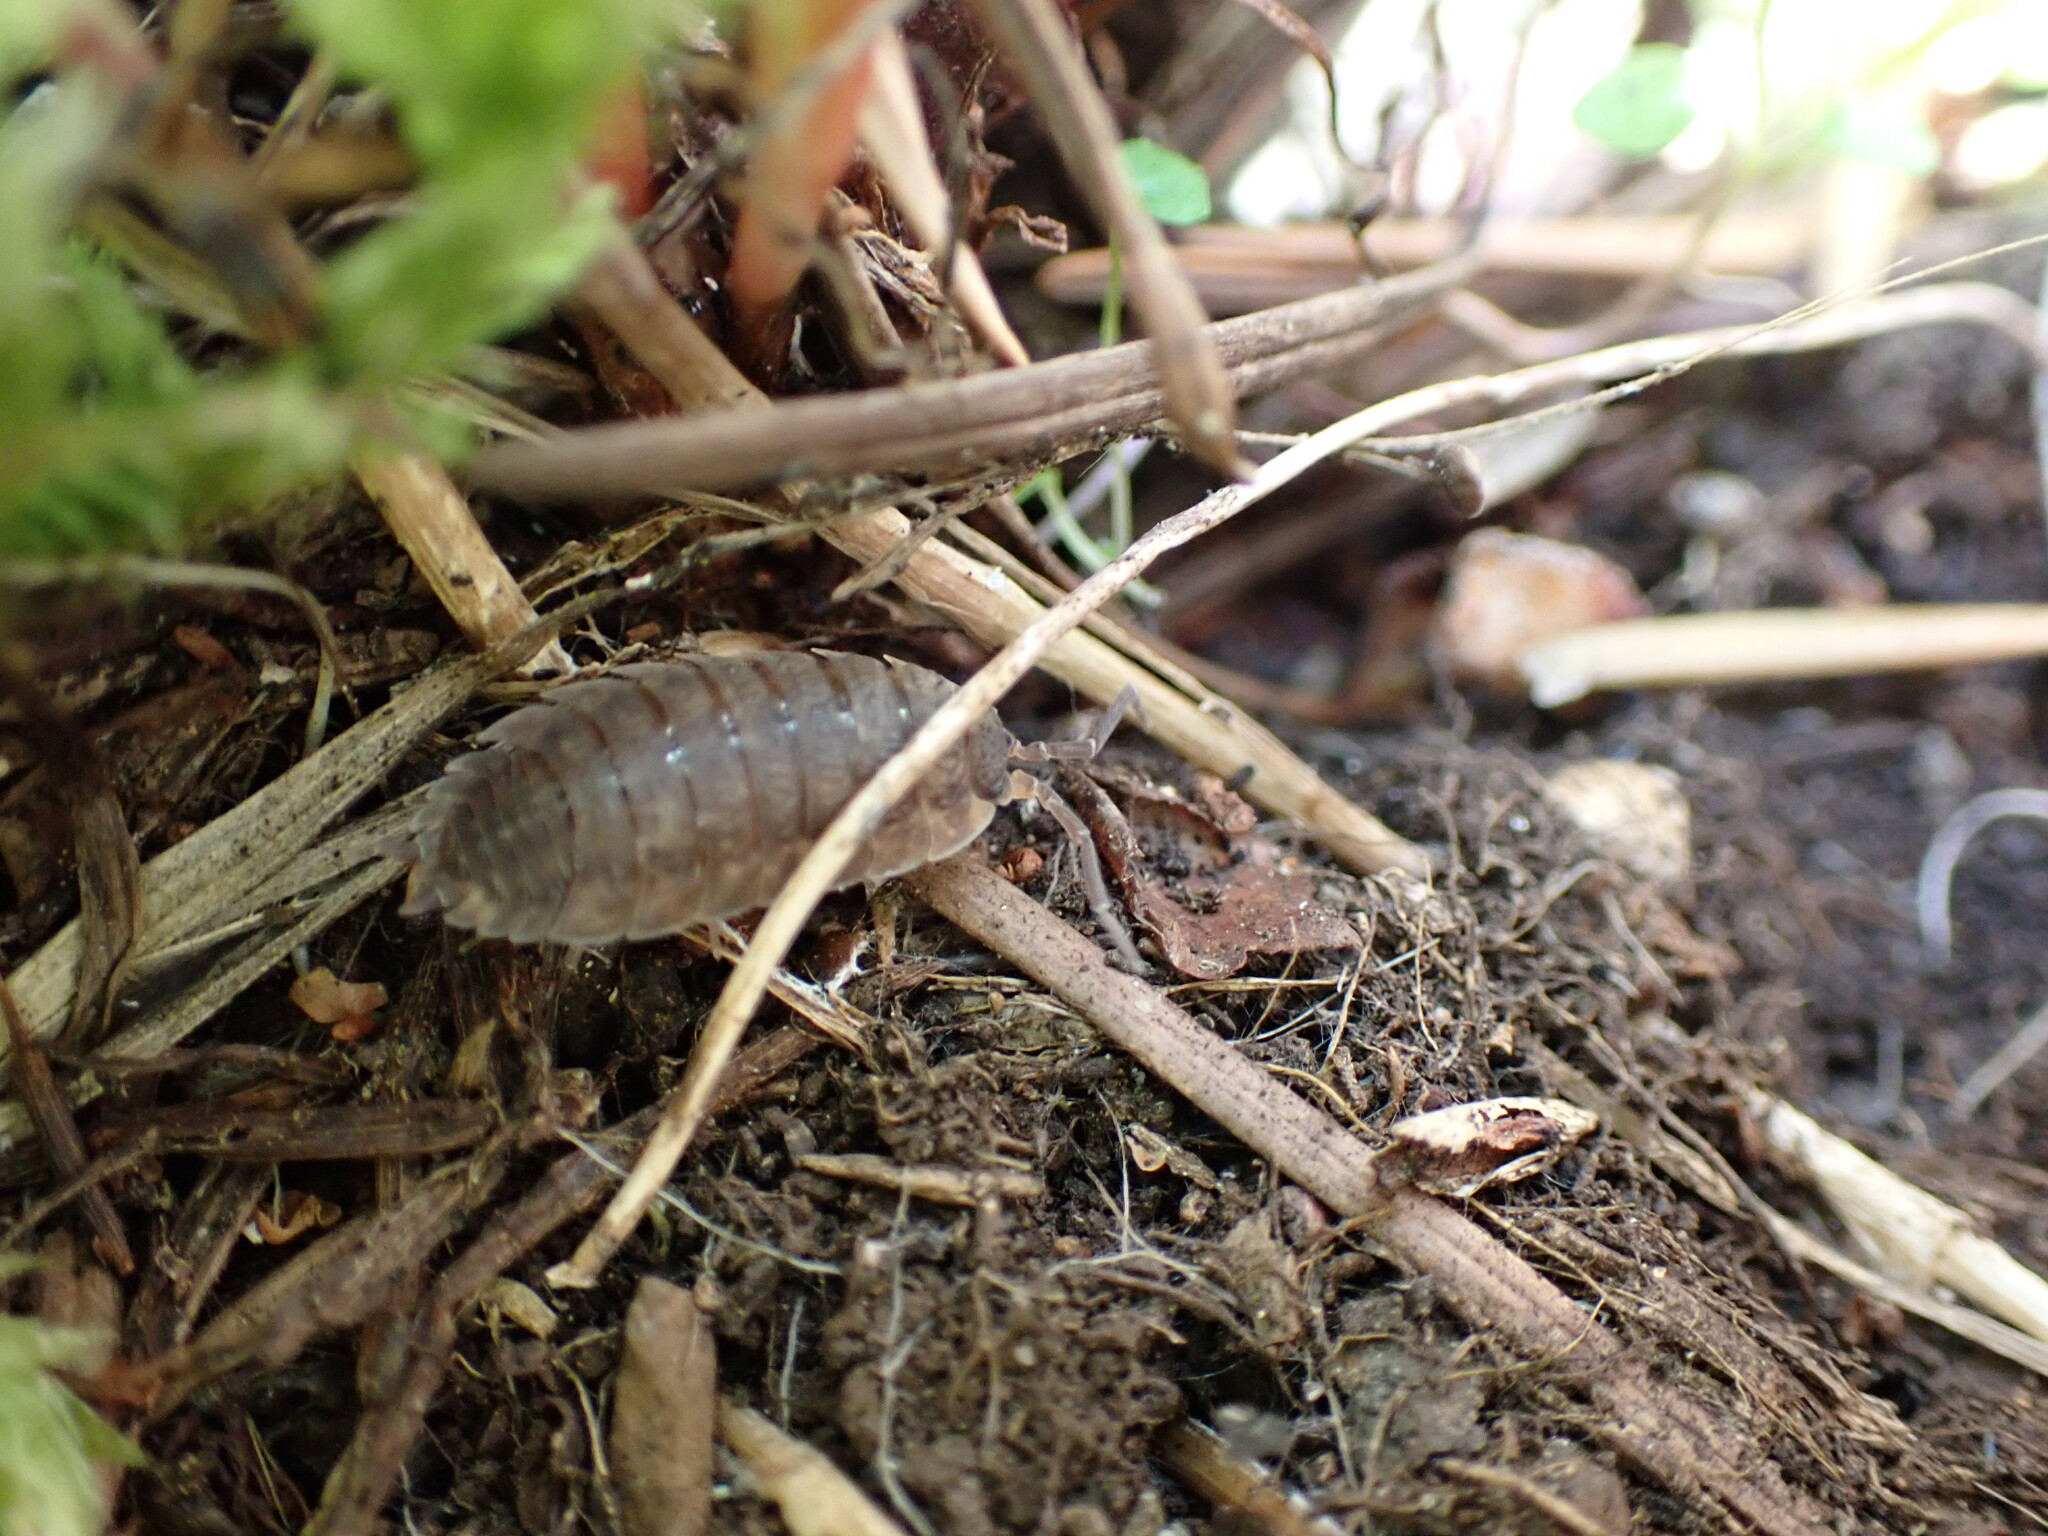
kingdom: Animalia
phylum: Arthropoda
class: Malacostraca
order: Isopoda
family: Porcellionidae
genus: Porcellio
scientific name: Porcellio scaber
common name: Common rough woodlouse
